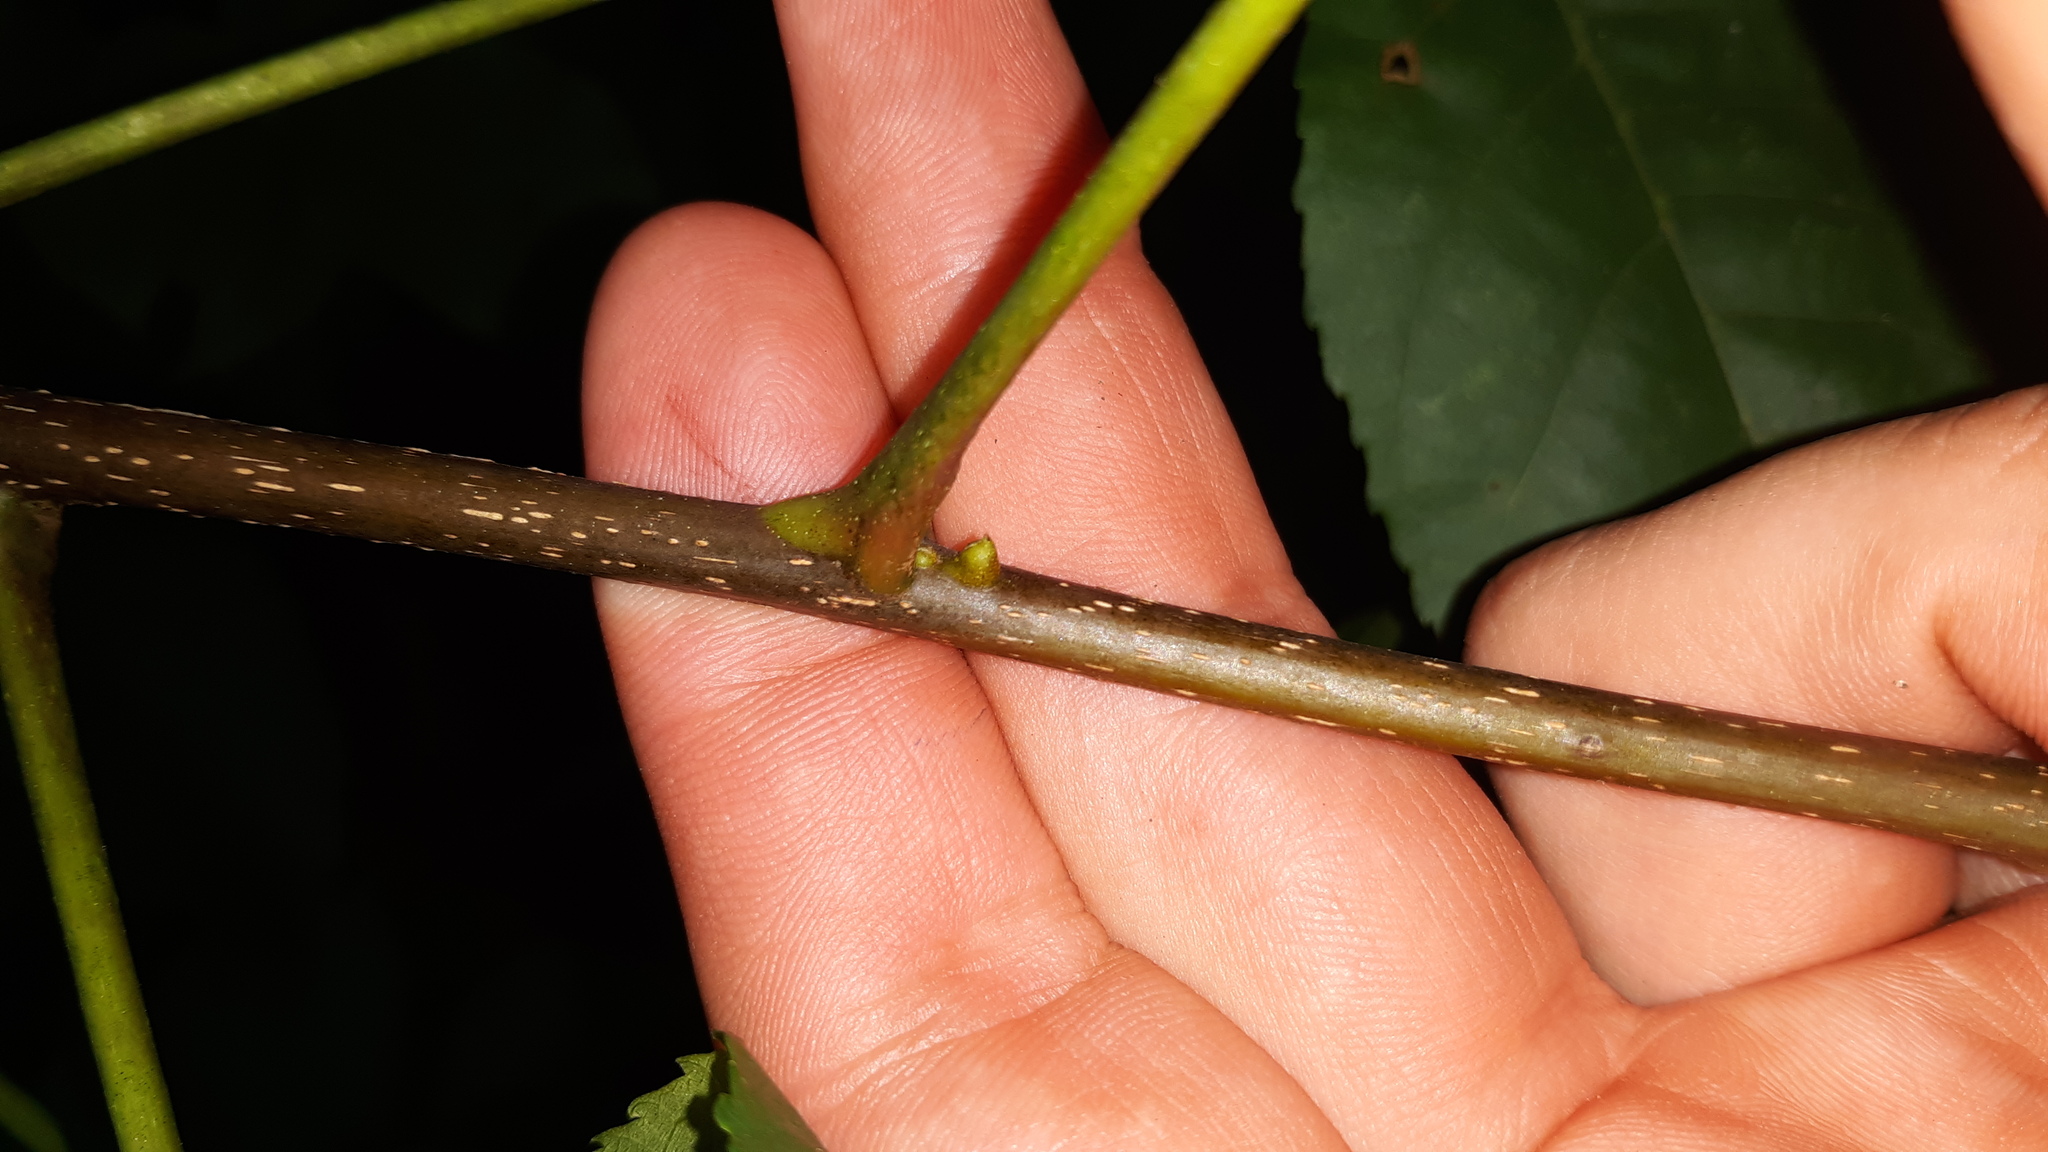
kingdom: Plantae
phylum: Tracheophyta
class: Magnoliopsida
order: Fagales
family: Juglandaceae
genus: Carya
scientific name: Carya glabra
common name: Pignut hickory
